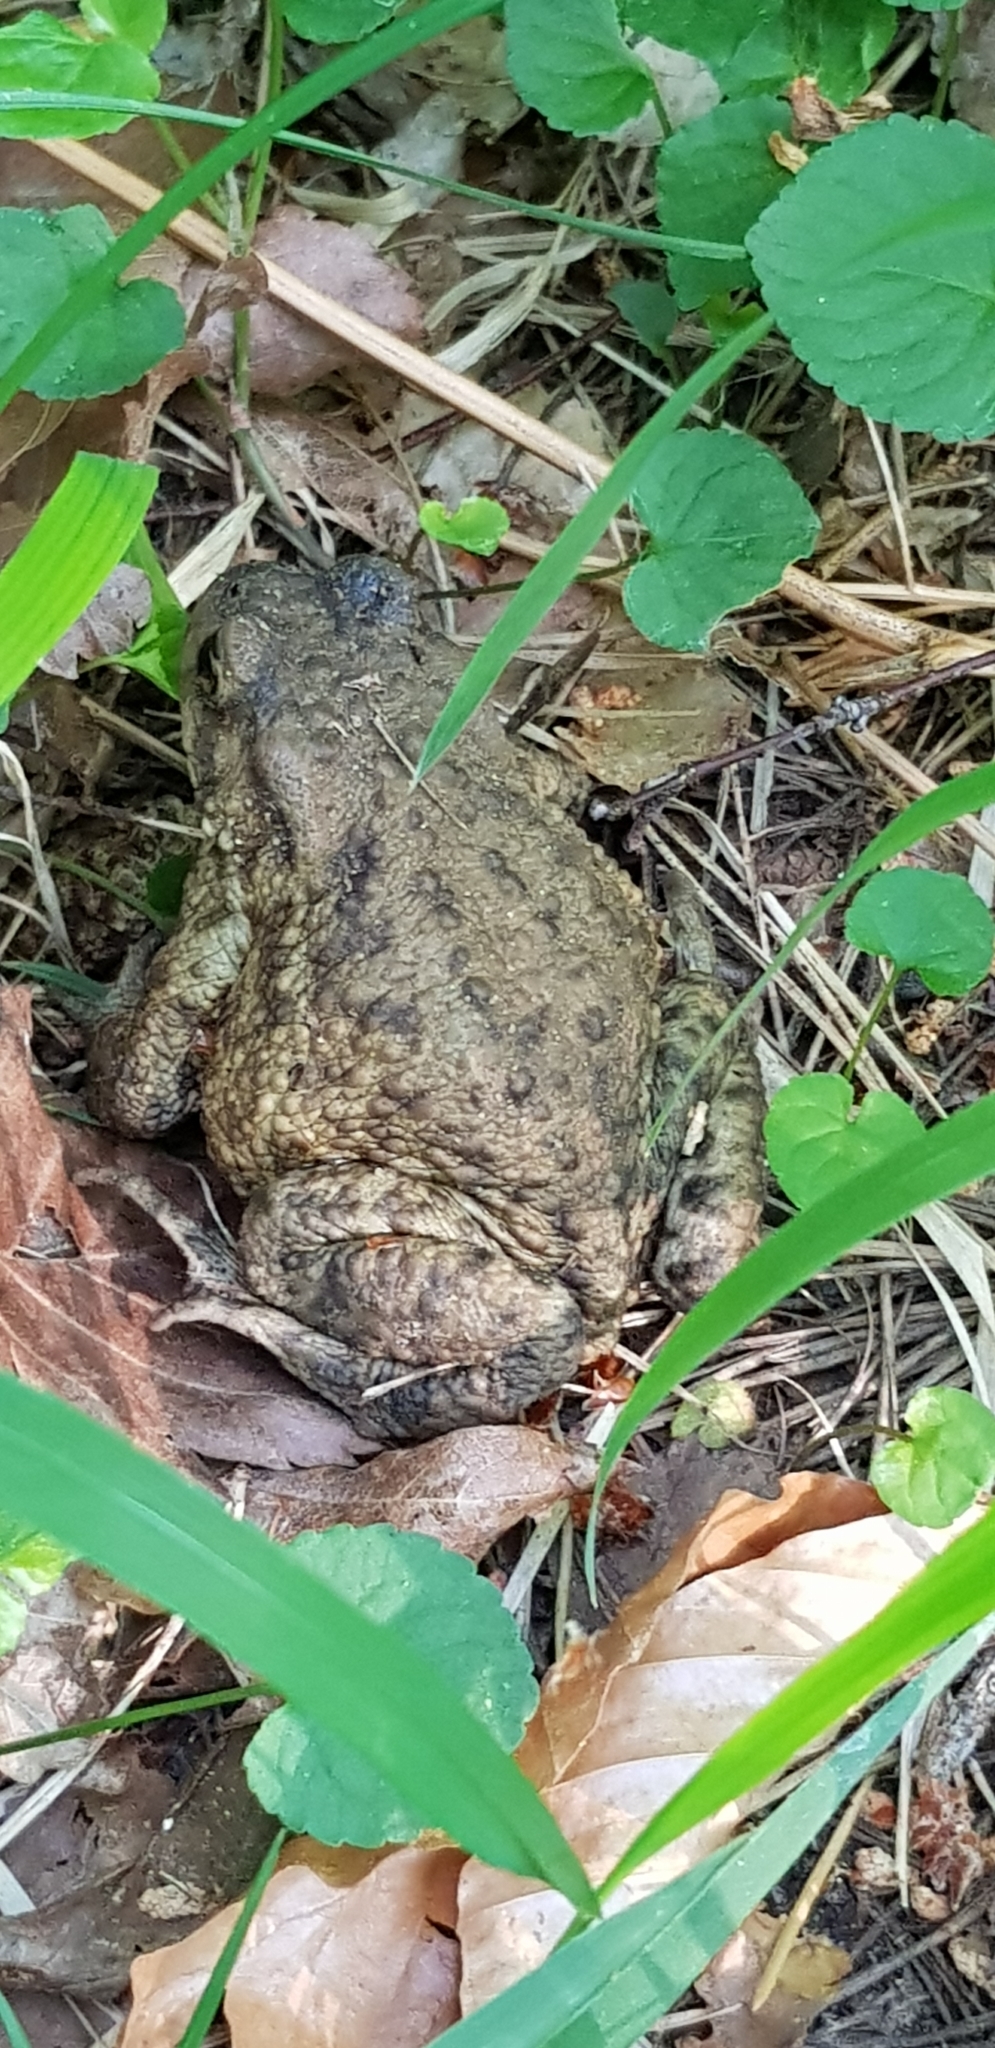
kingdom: Animalia
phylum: Chordata
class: Amphibia
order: Anura
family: Bufonidae
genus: Bufo
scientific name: Bufo bufo
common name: Common toad
